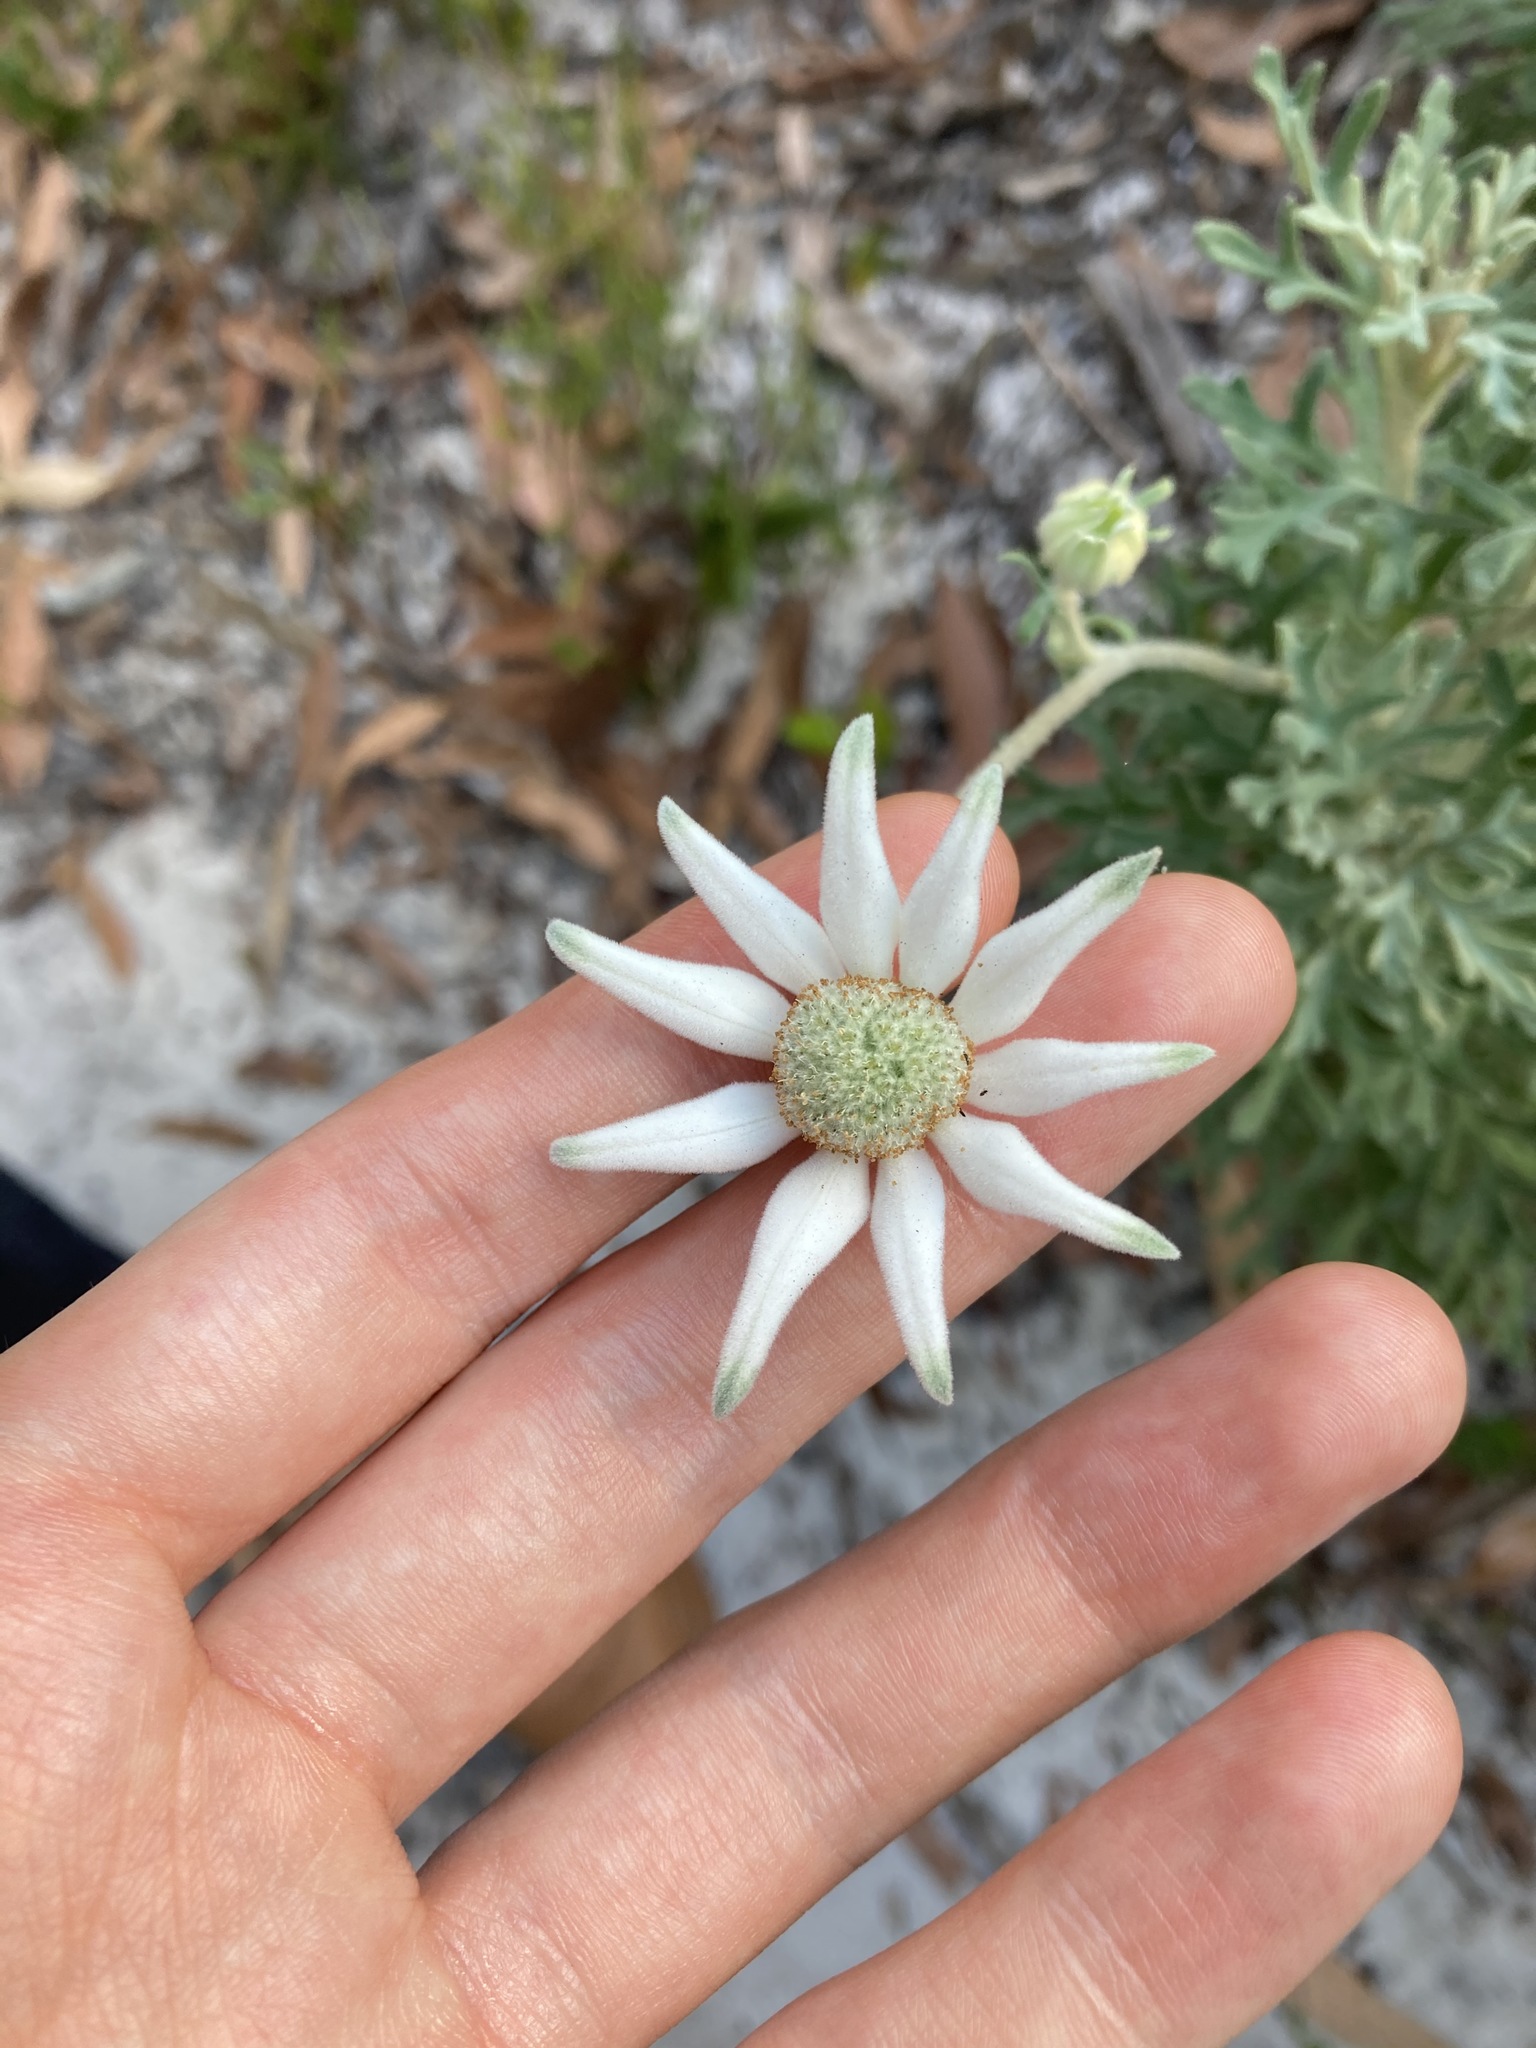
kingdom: Plantae
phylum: Tracheophyta
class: Magnoliopsida
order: Apiales
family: Apiaceae
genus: Actinotus
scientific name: Actinotus helianthi
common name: Flannel-flower
